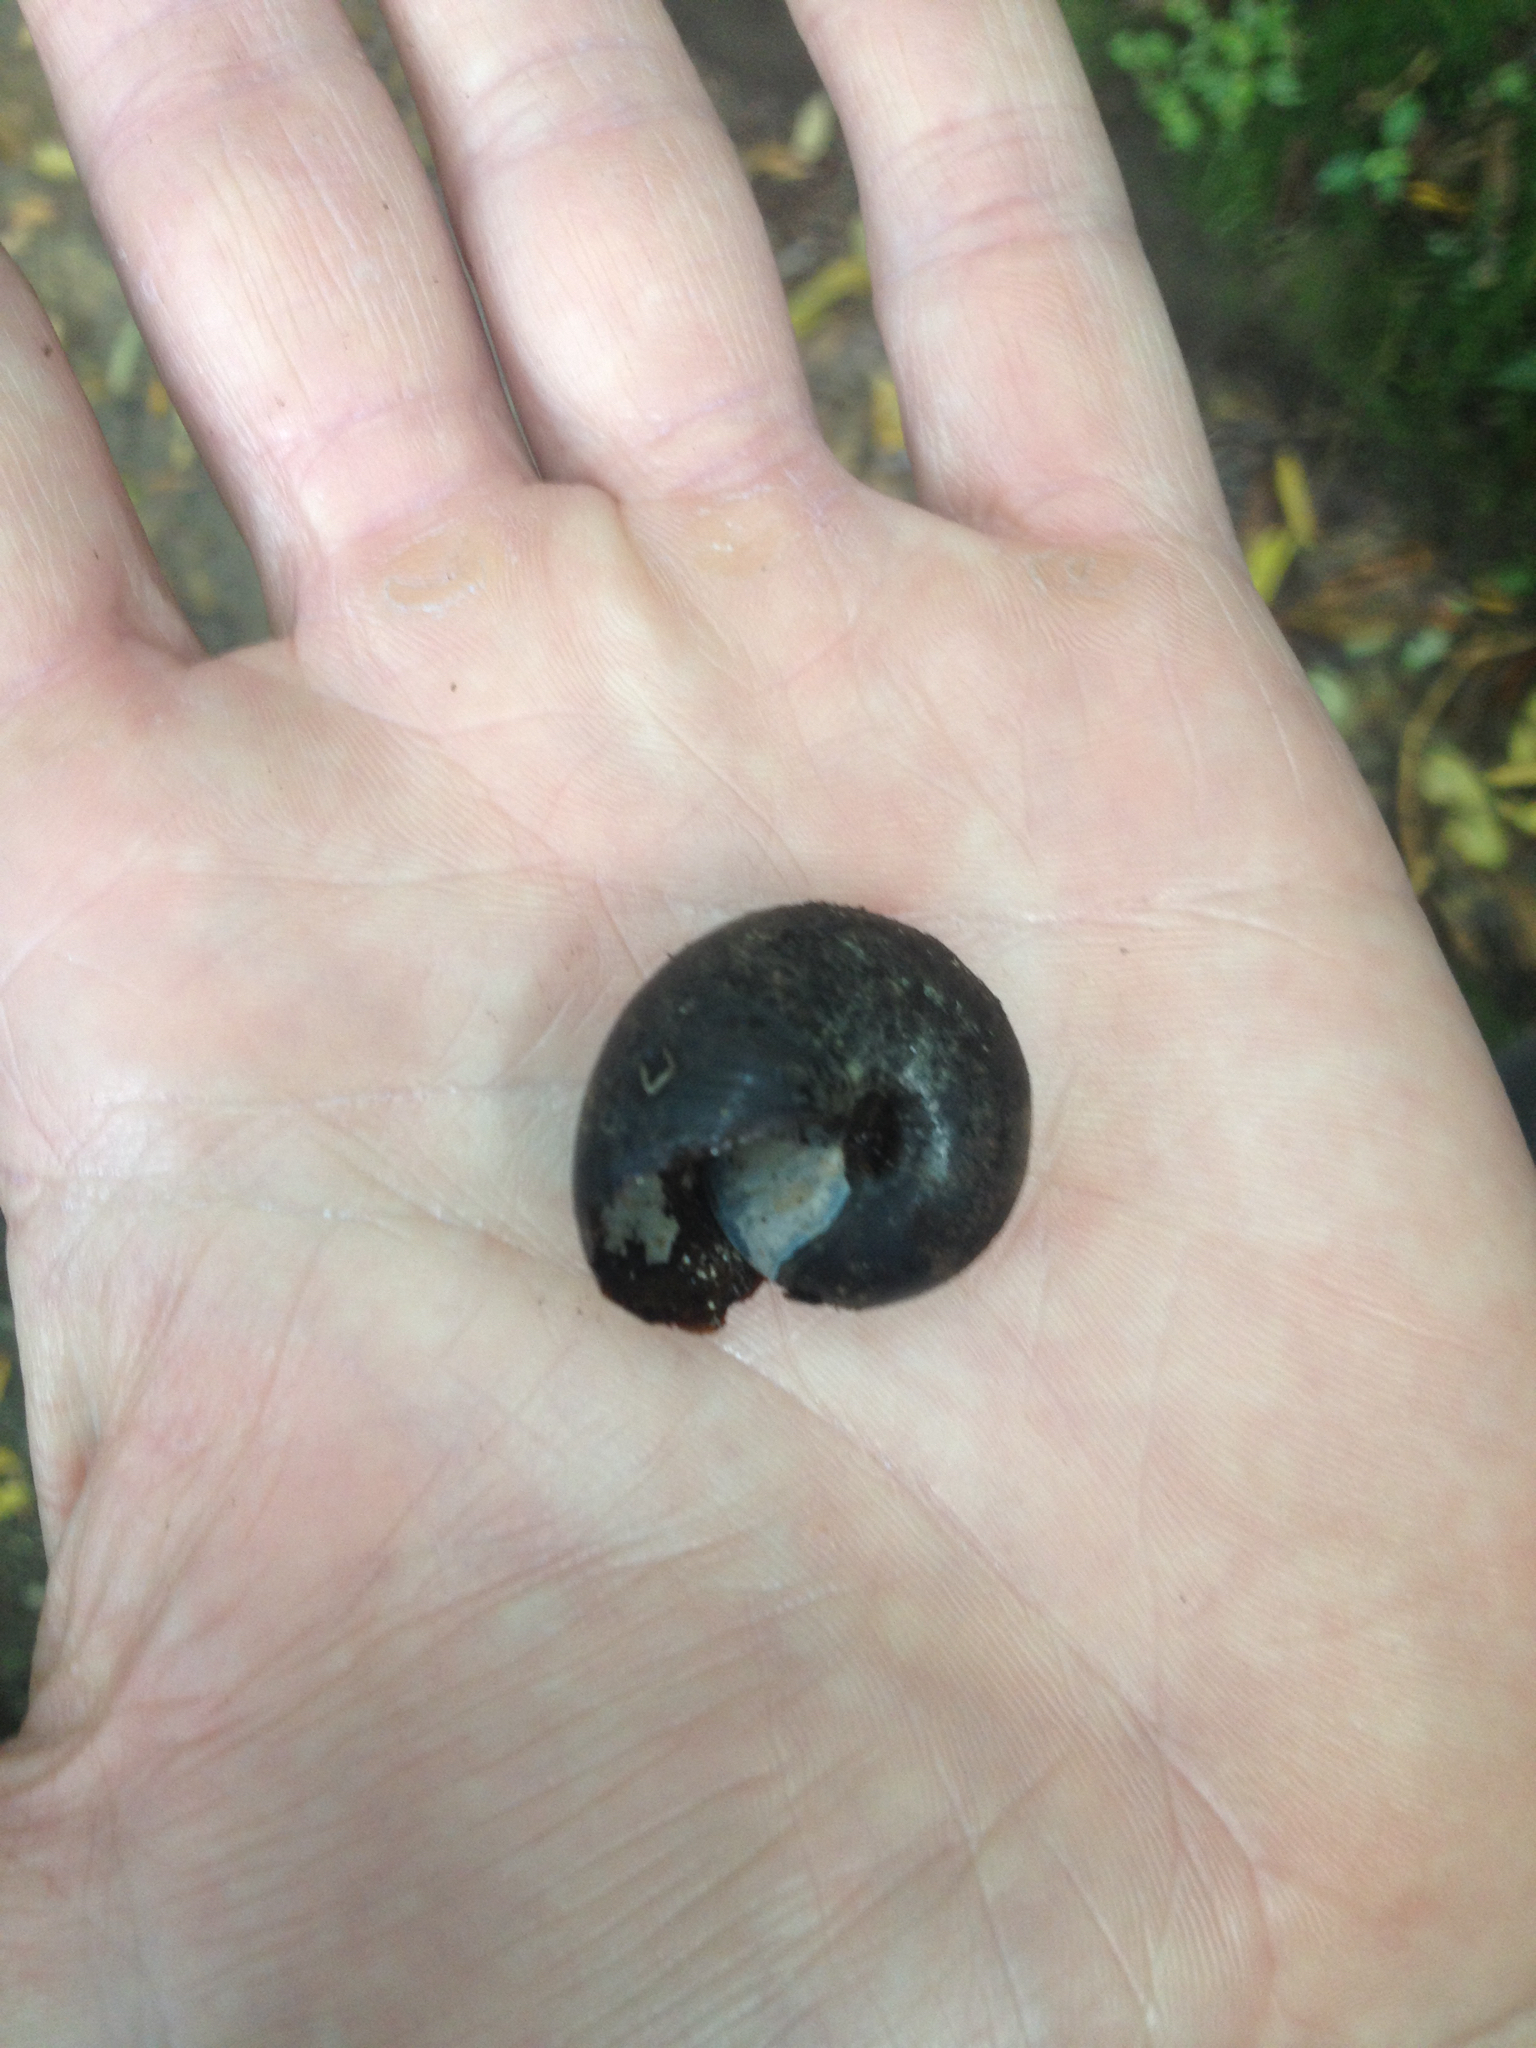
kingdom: Animalia
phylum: Mollusca
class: Gastropoda
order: Stylommatophora
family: Rhytididae
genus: Powelliphanta
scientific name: Powelliphanta traversi
